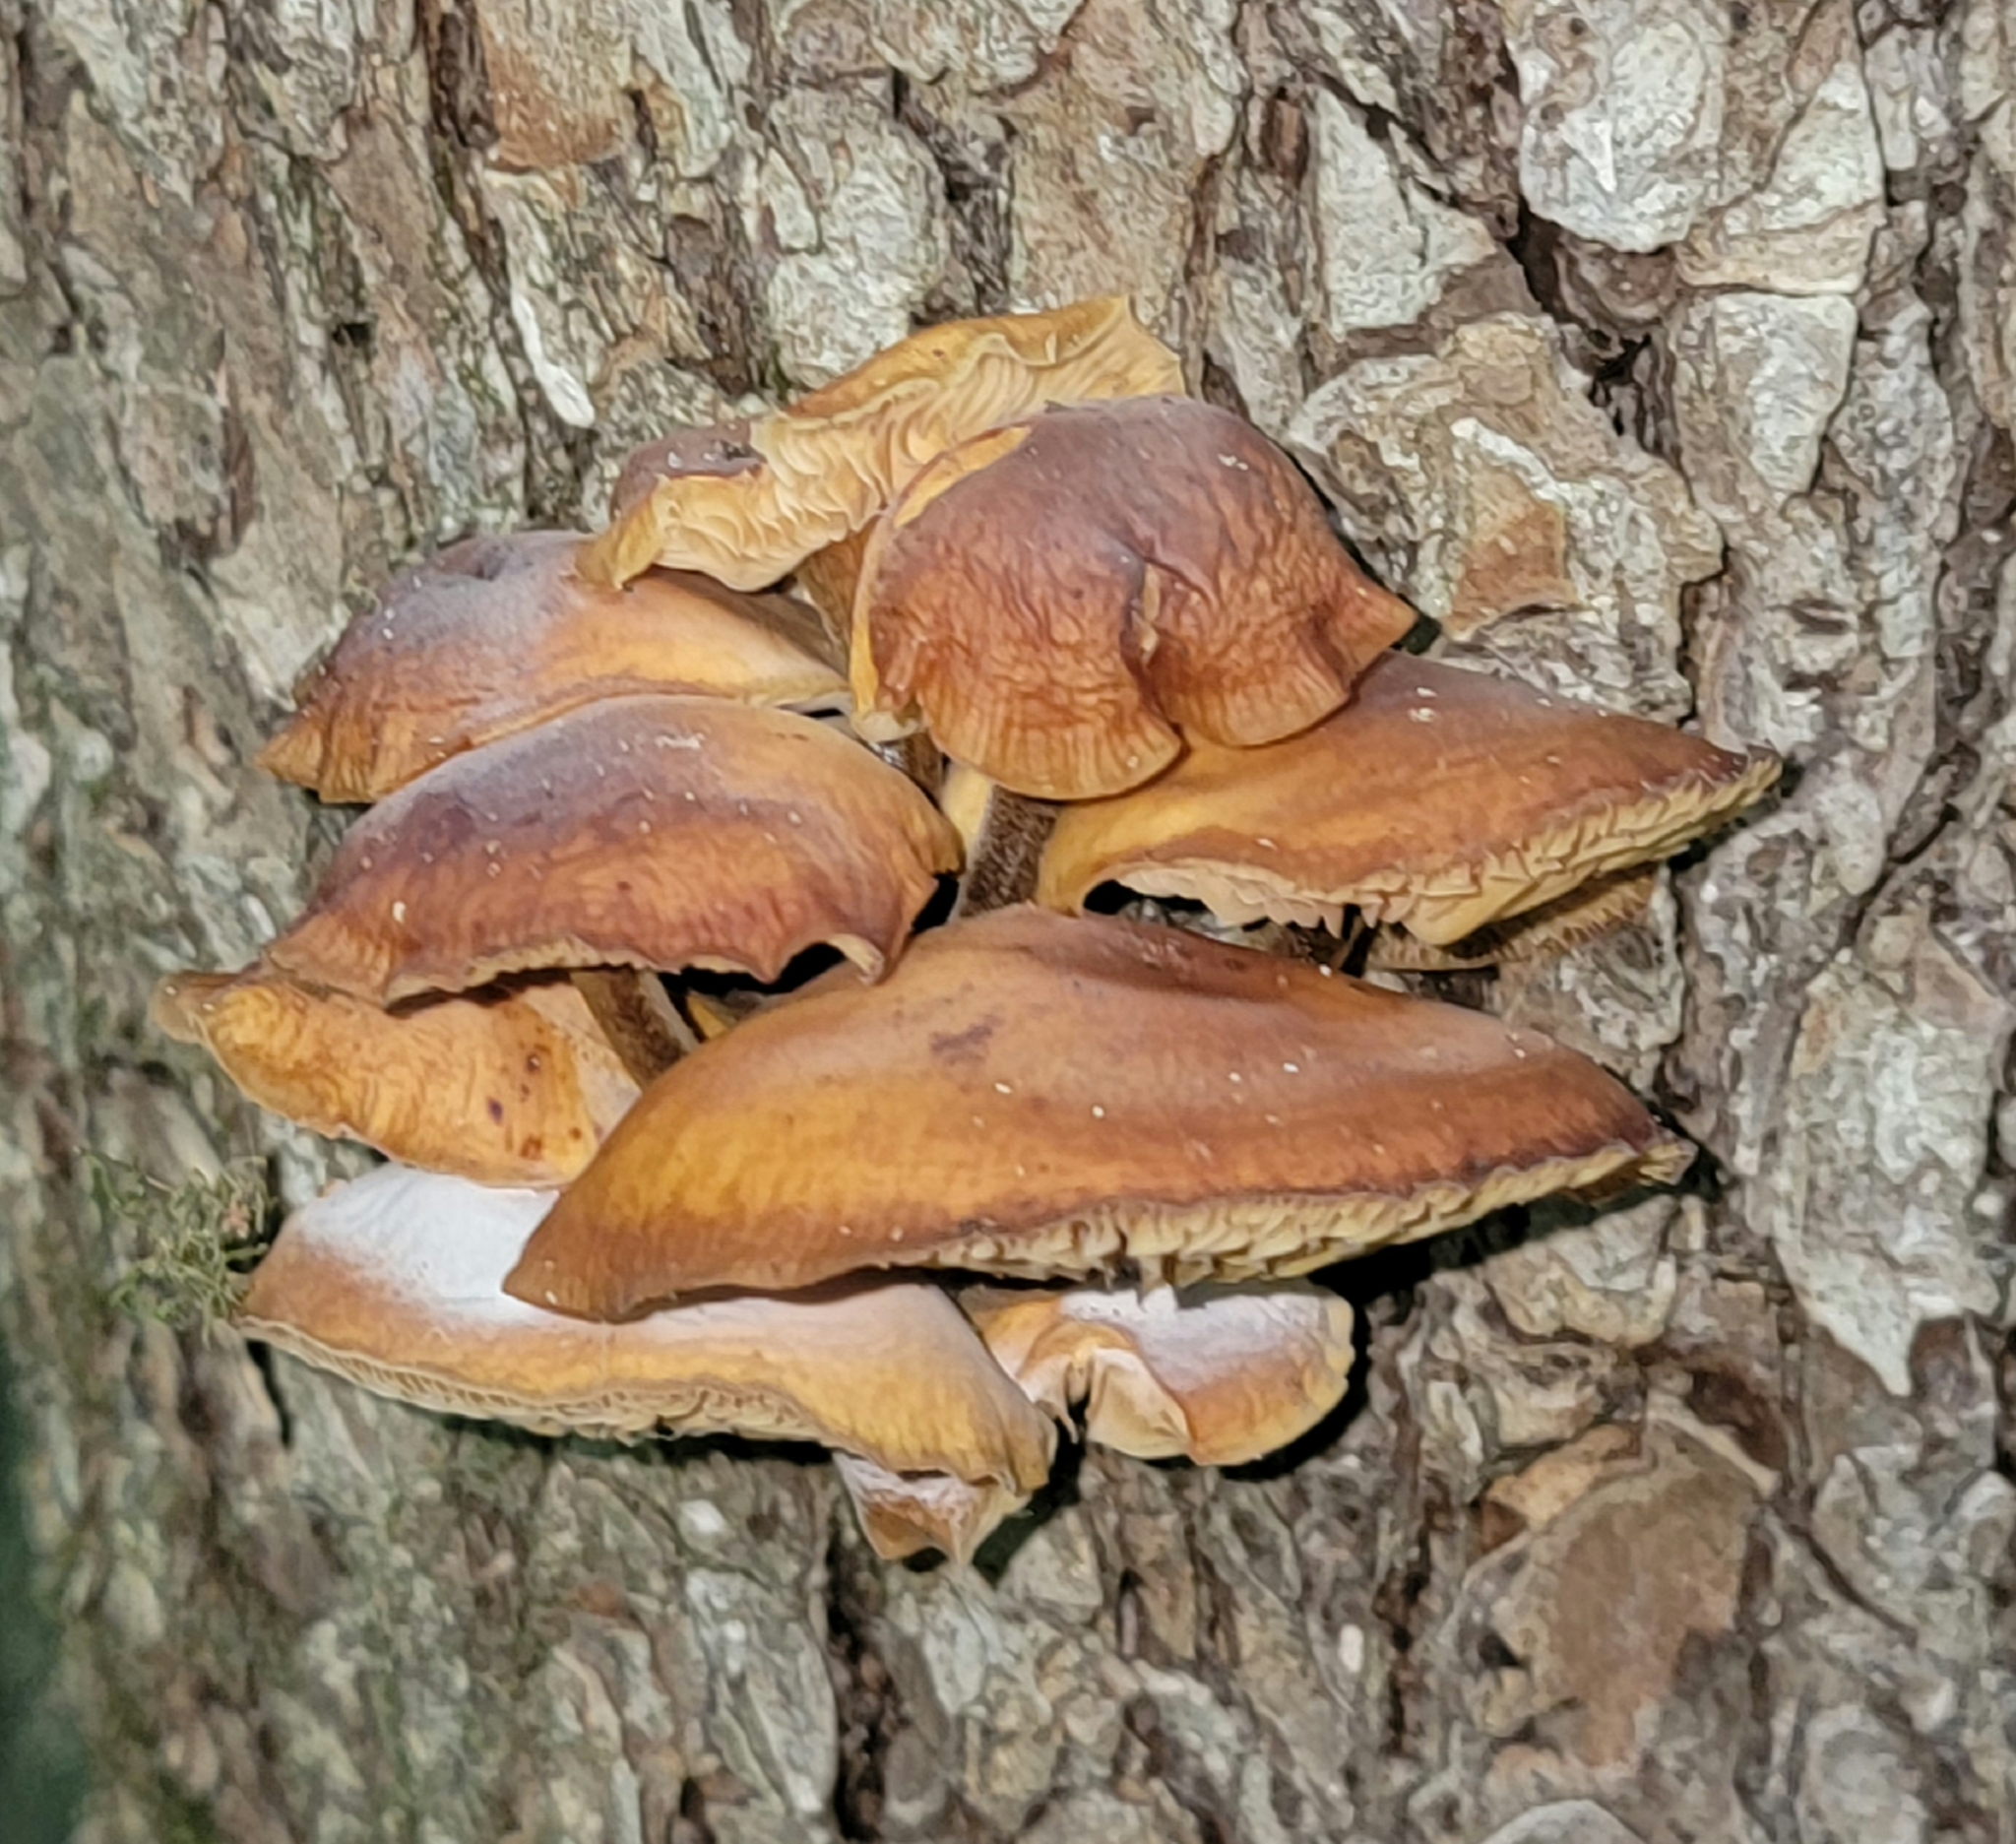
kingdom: Fungi
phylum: Basidiomycota
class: Agaricomycetes
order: Agaricales
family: Physalacriaceae
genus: Flammulina
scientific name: Flammulina velutipes
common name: Velvet shank
